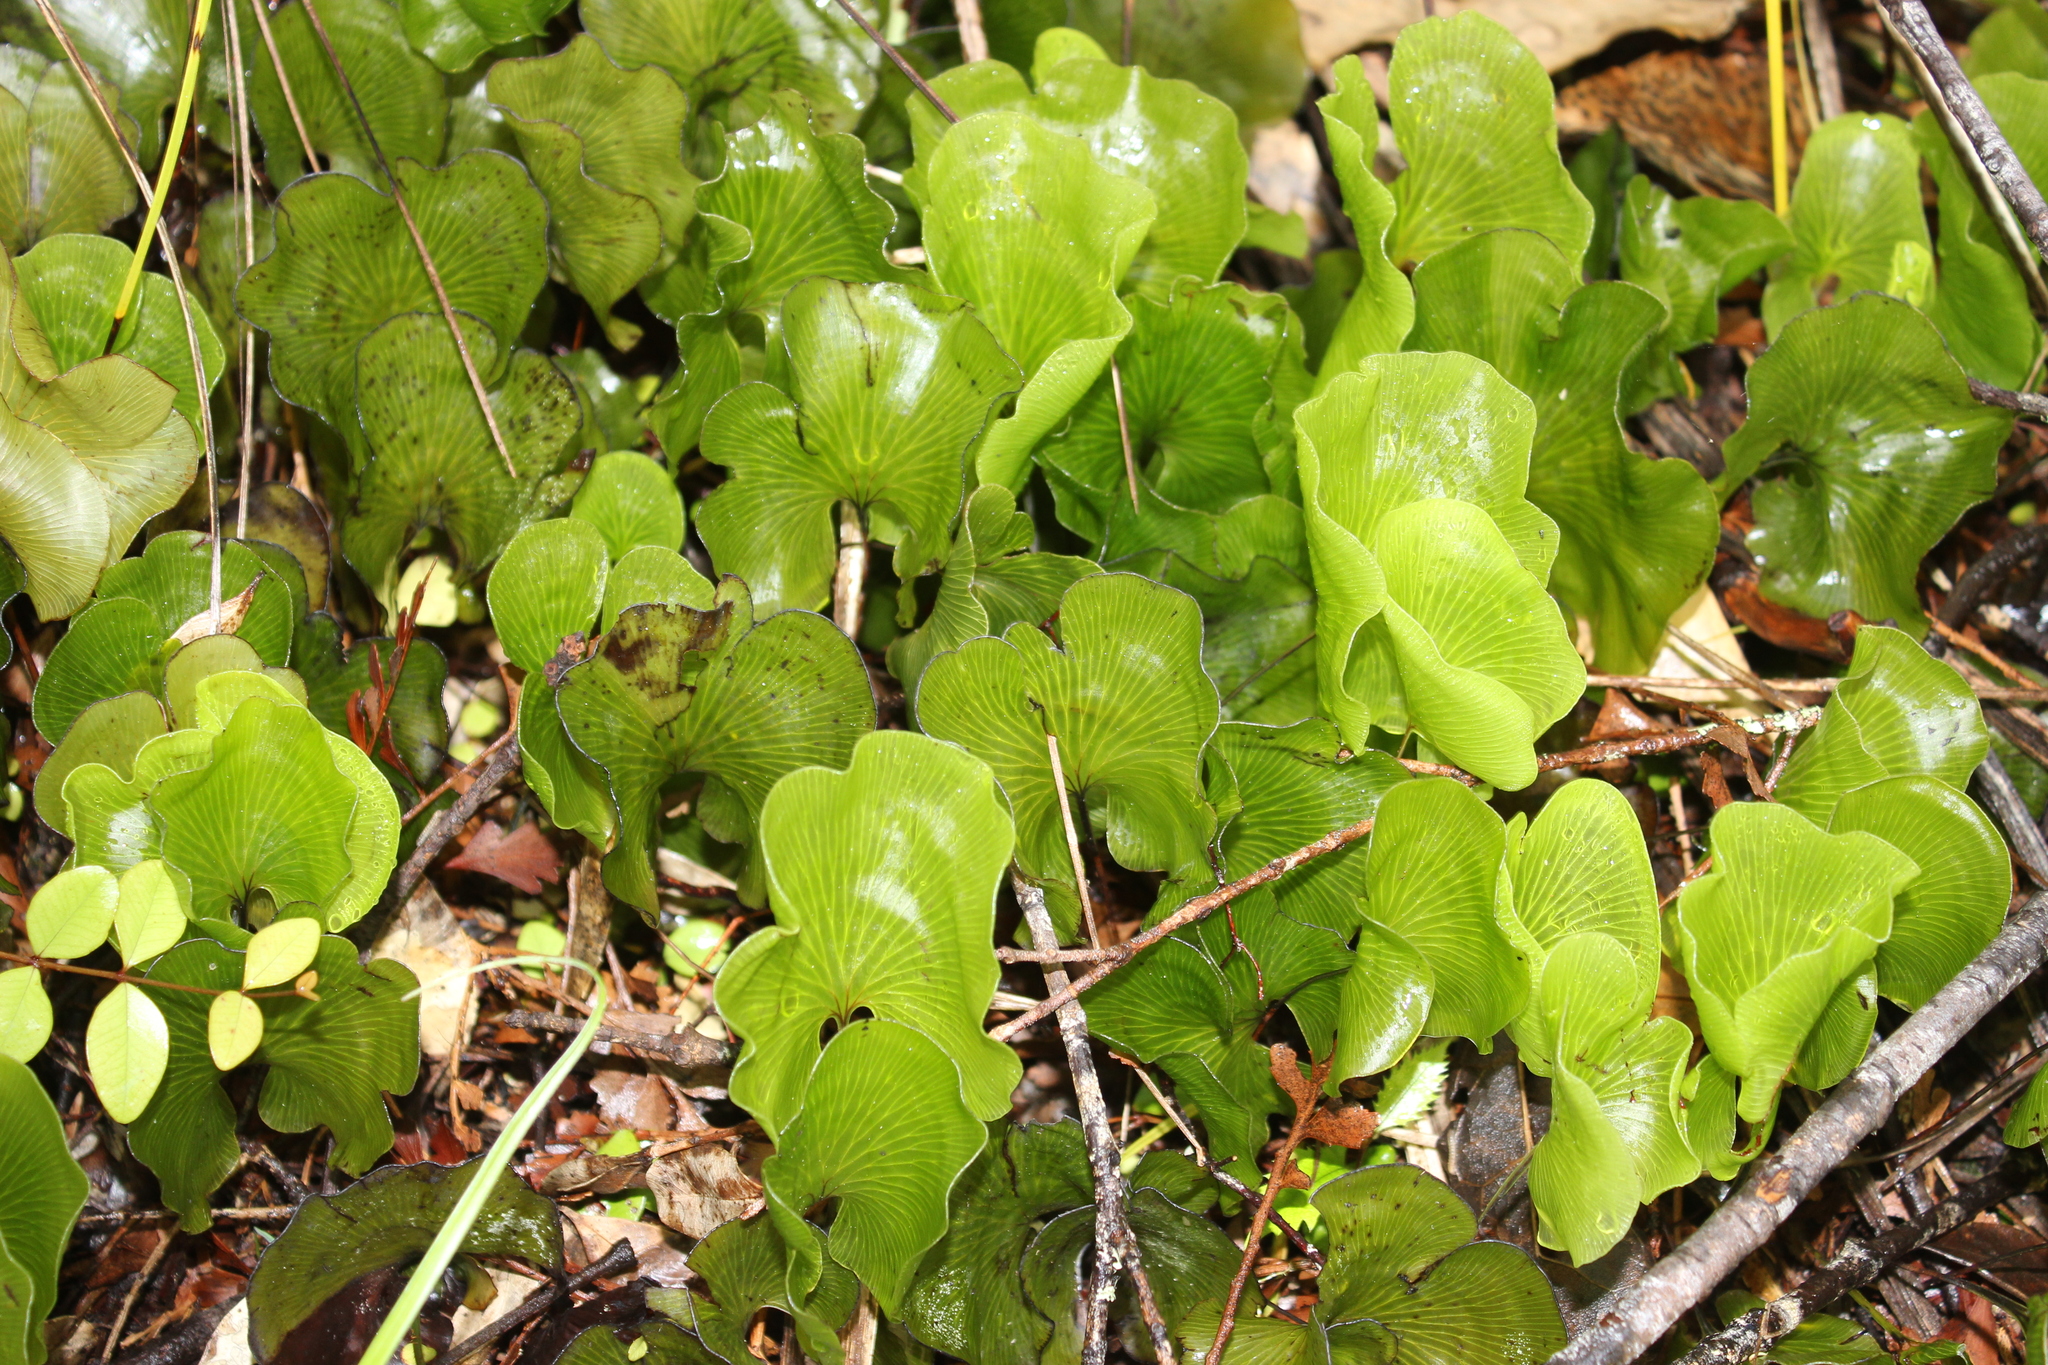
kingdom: Plantae
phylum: Tracheophyta
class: Polypodiopsida
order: Hymenophyllales
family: Hymenophyllaceae
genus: Hymenophyllum
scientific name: Hymenophyllum nephrophyllum
